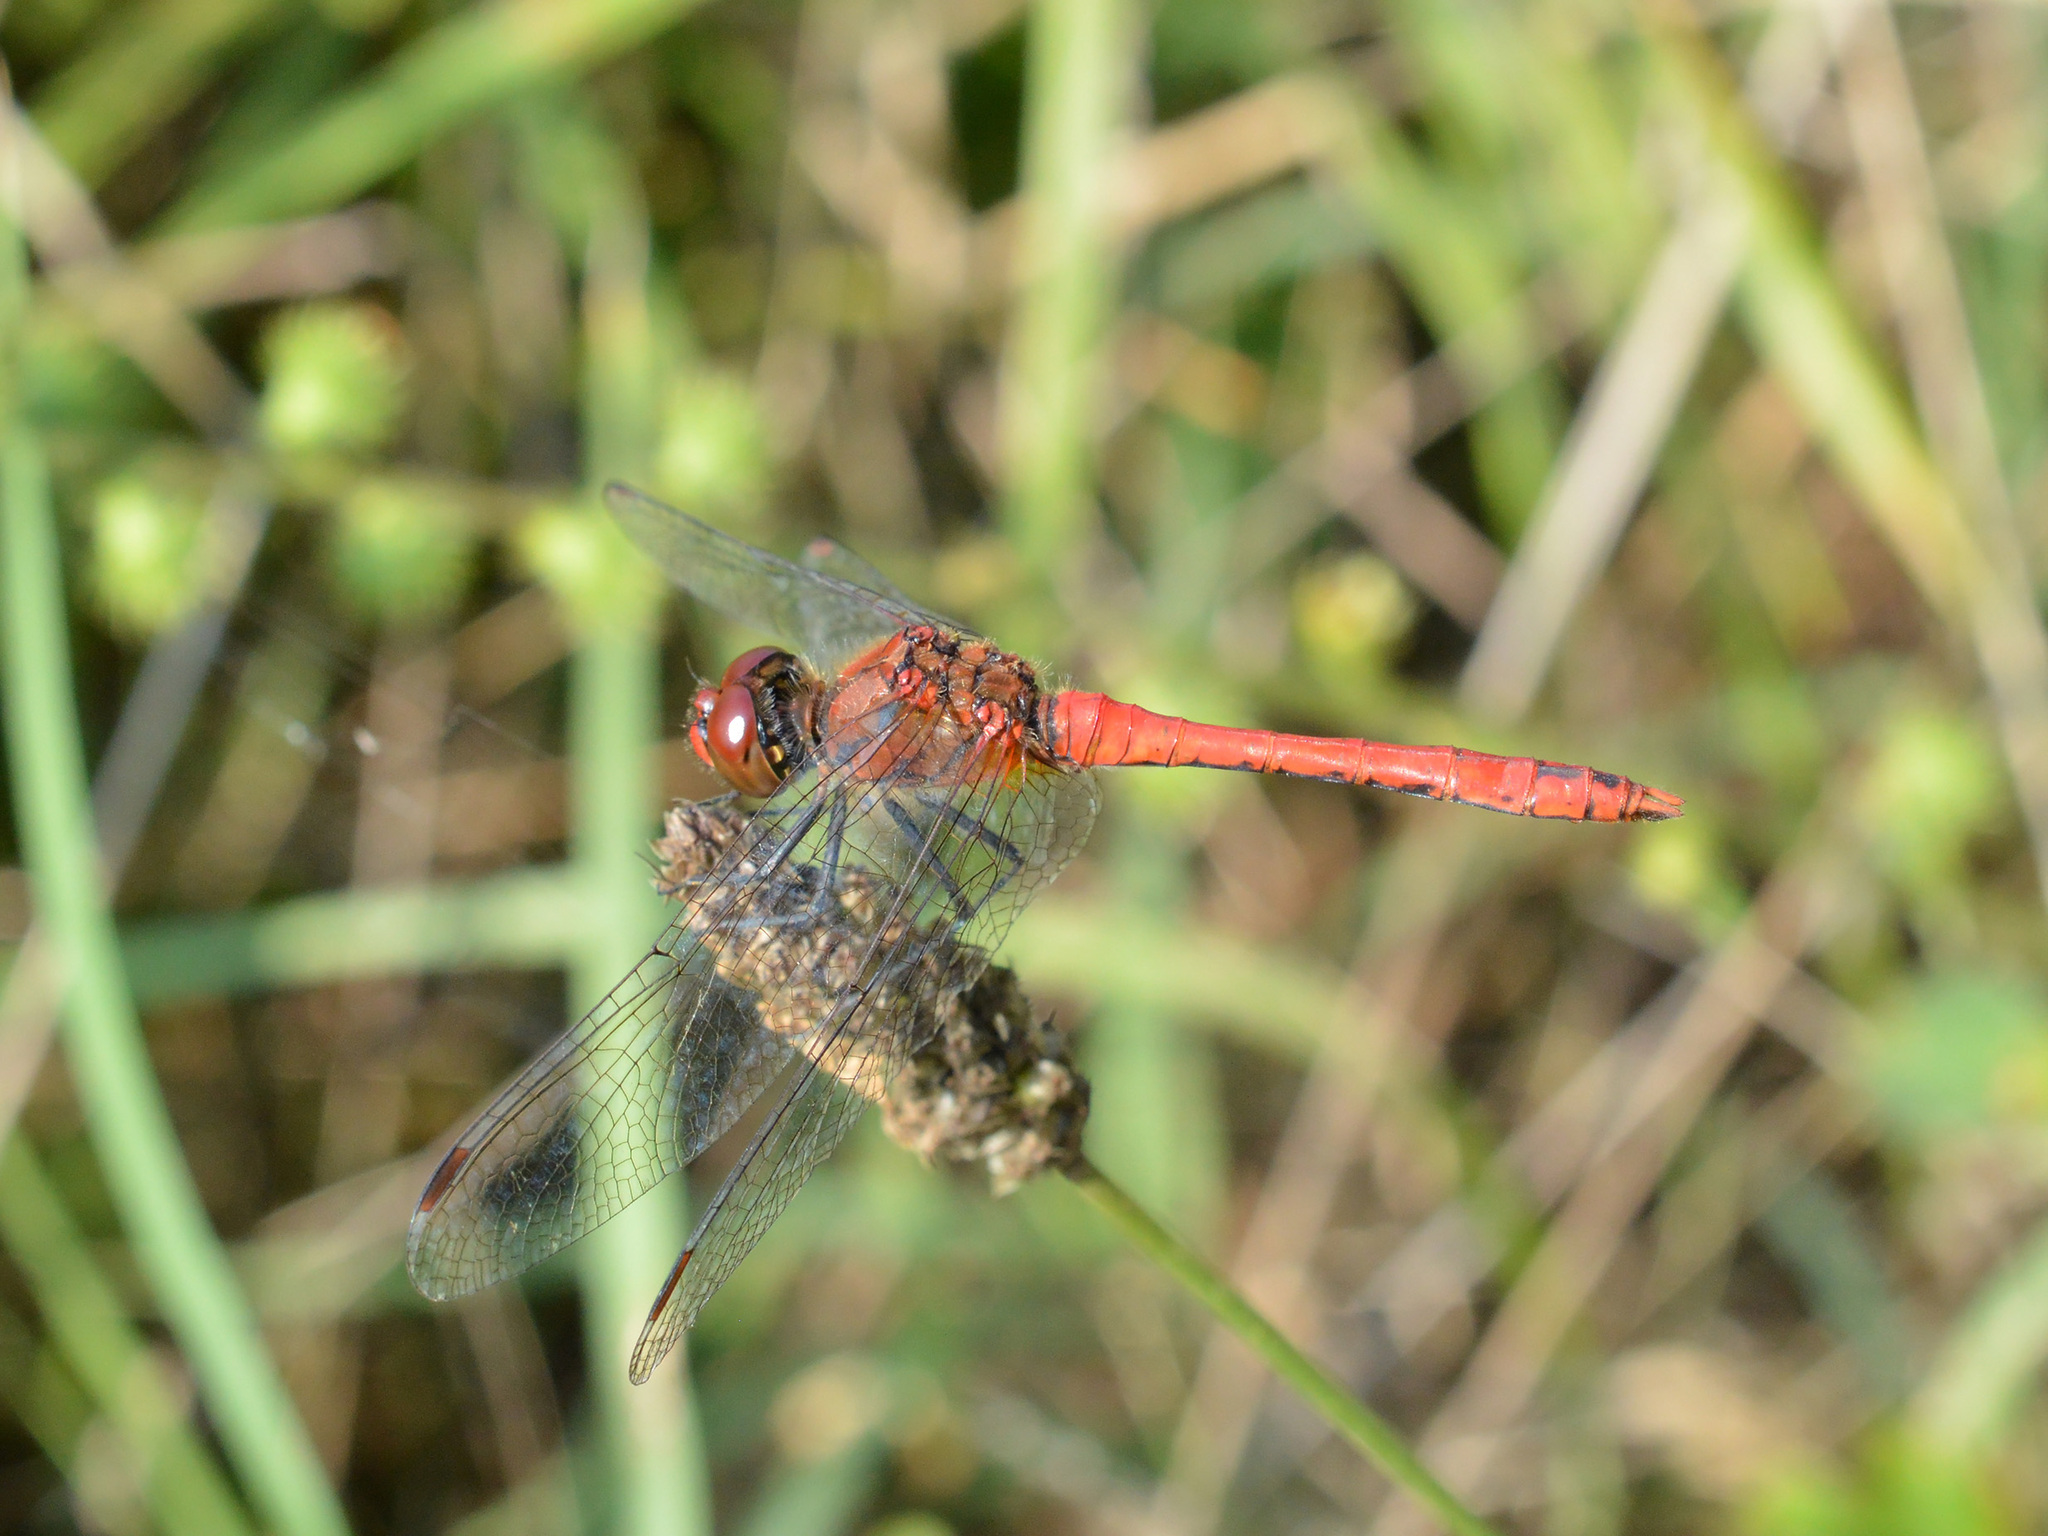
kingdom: Animalia
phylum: Arthropoda
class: Insecta
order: Odonata
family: Libellulidae
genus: Sympetrum
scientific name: Sympetrum sanguineum
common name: Ruddy darter
